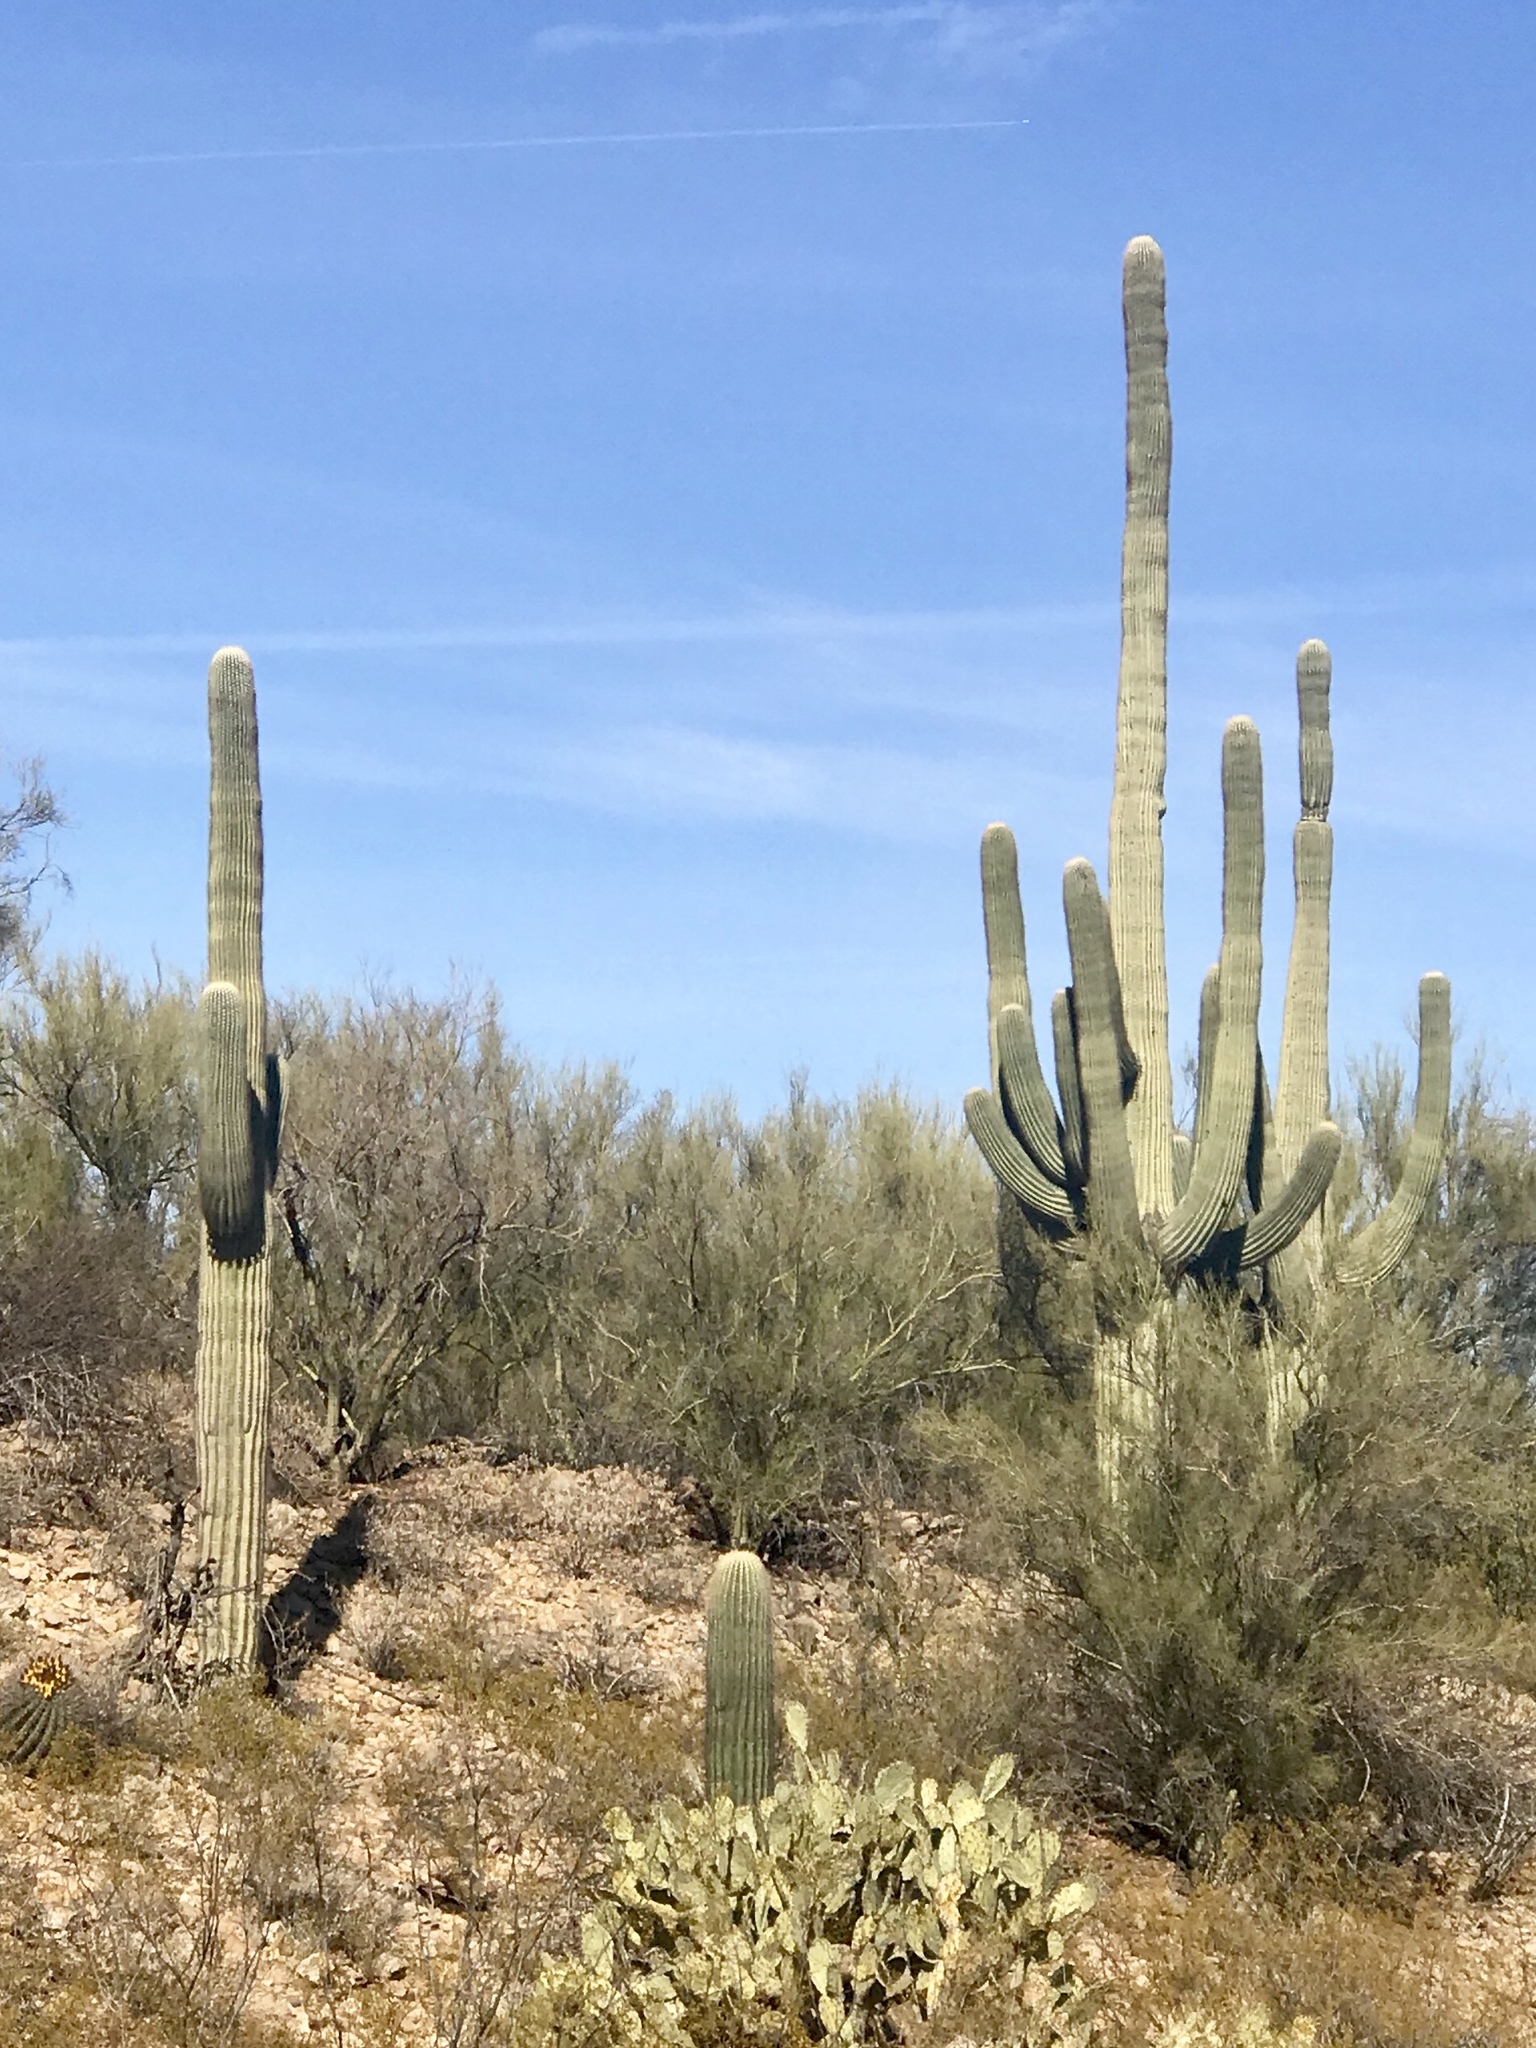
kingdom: Plantae
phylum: Tracheophyta
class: Magnoliopsida
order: Caryophyllales
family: Cactaceae
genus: Carnegiea
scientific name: Carnegiea gigantea
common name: Saguaro
